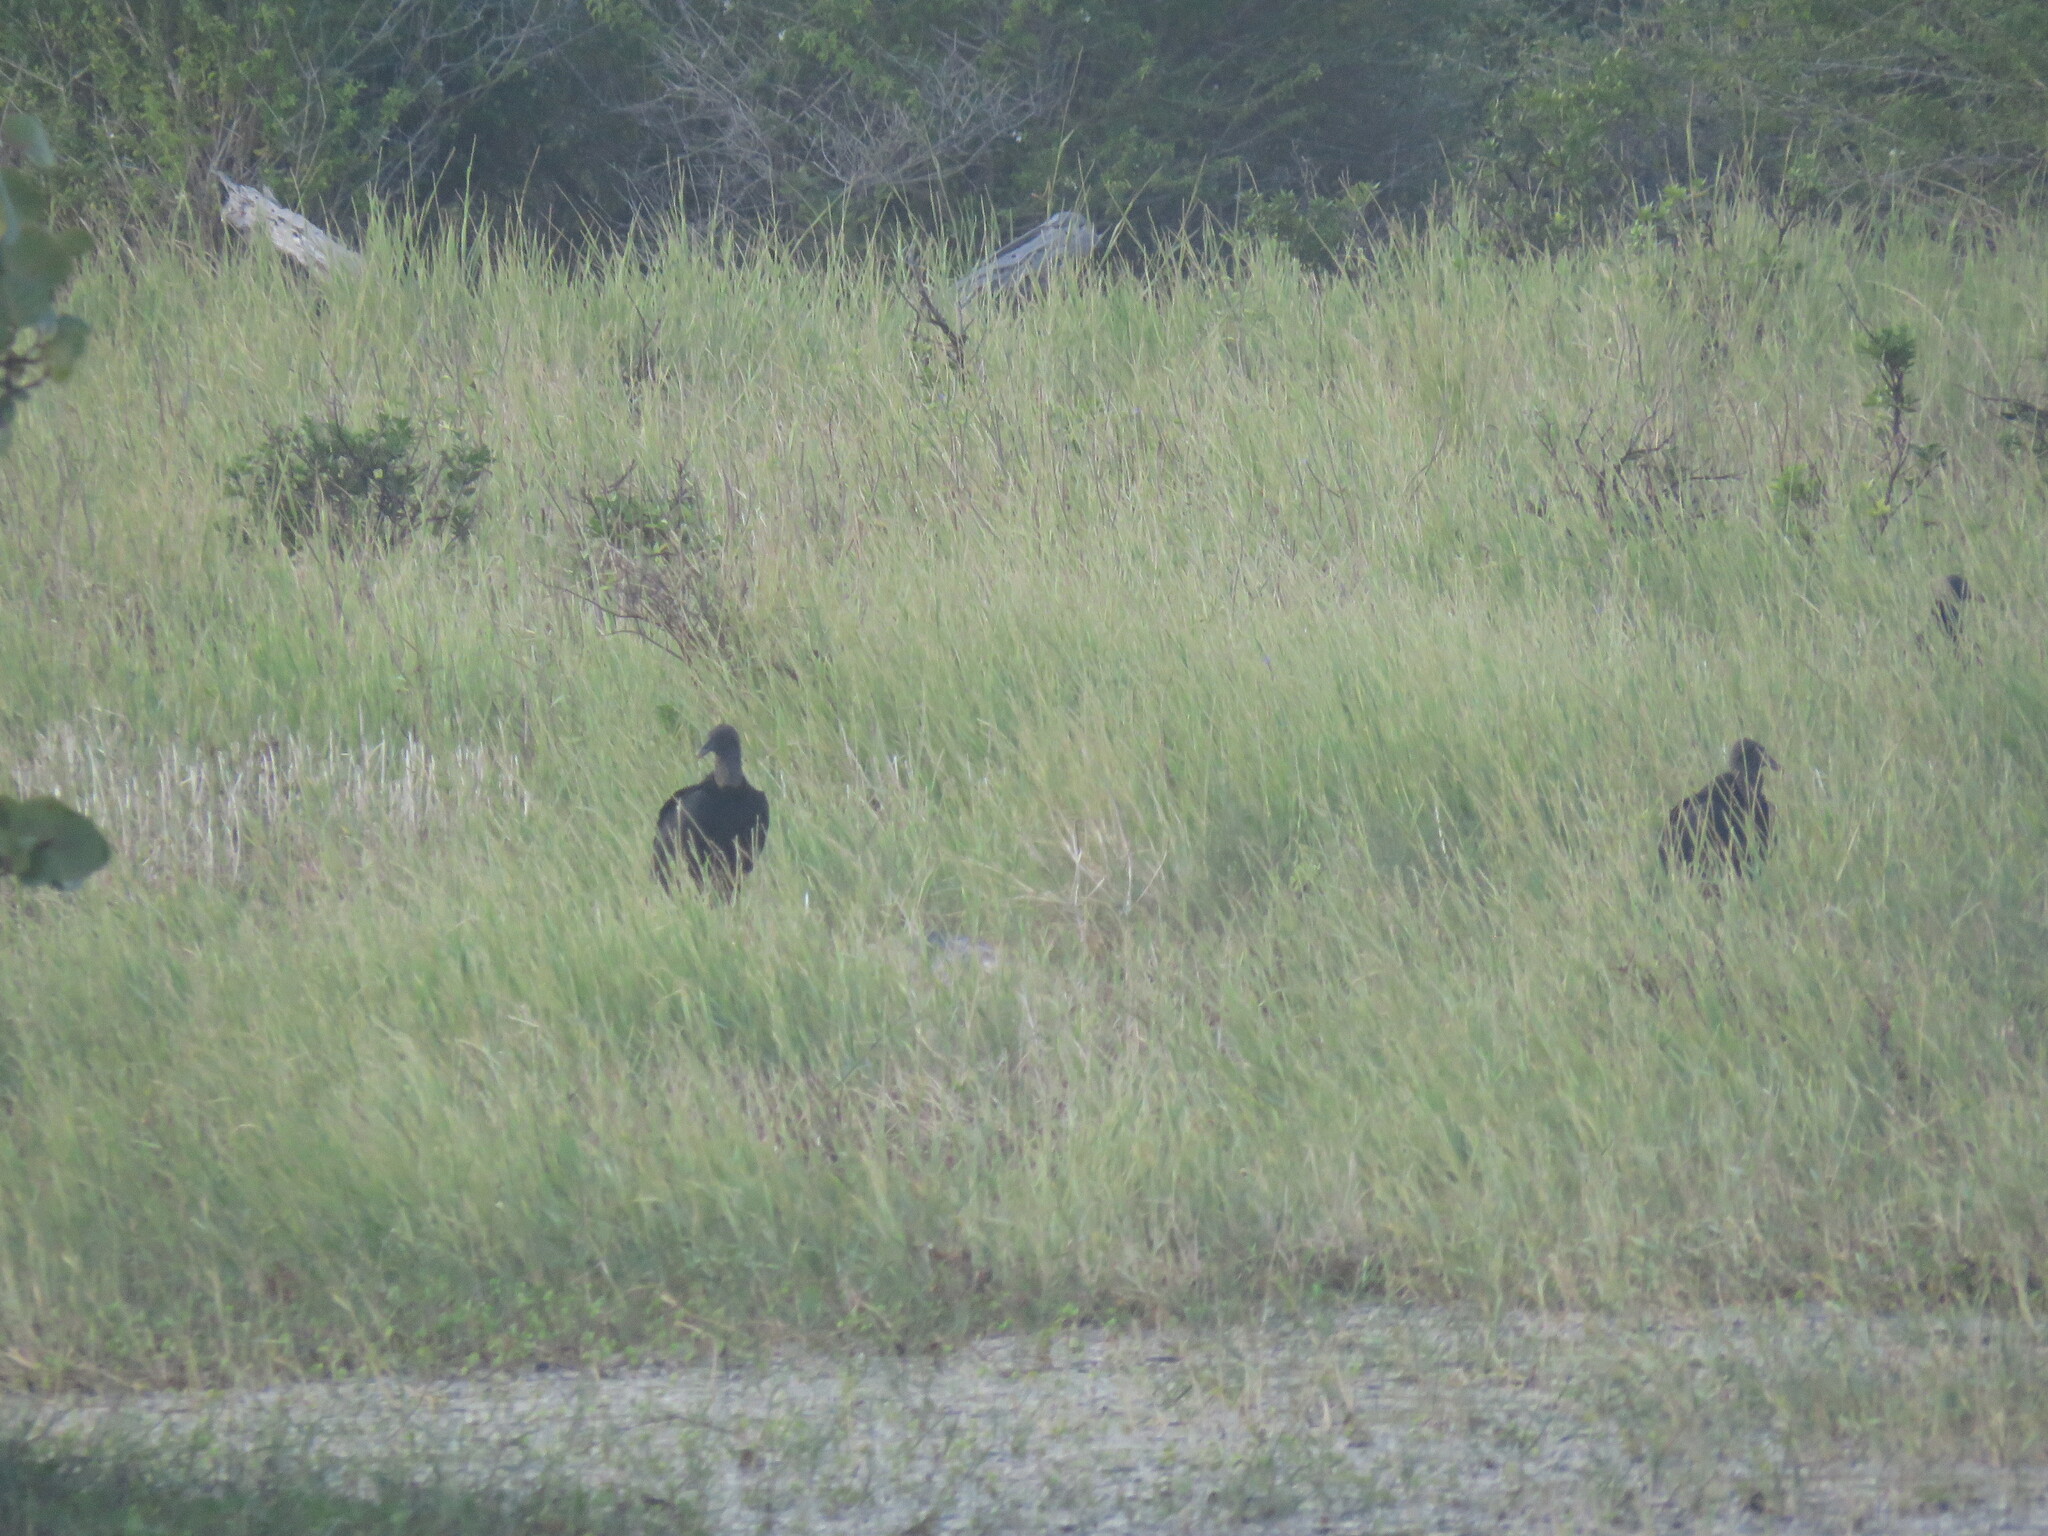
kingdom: Animalia
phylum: Chordata
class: Aves
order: Accipitriformes
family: Cathartidae
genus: Coragyps
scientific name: Coragyps atratus
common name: Black vulture
